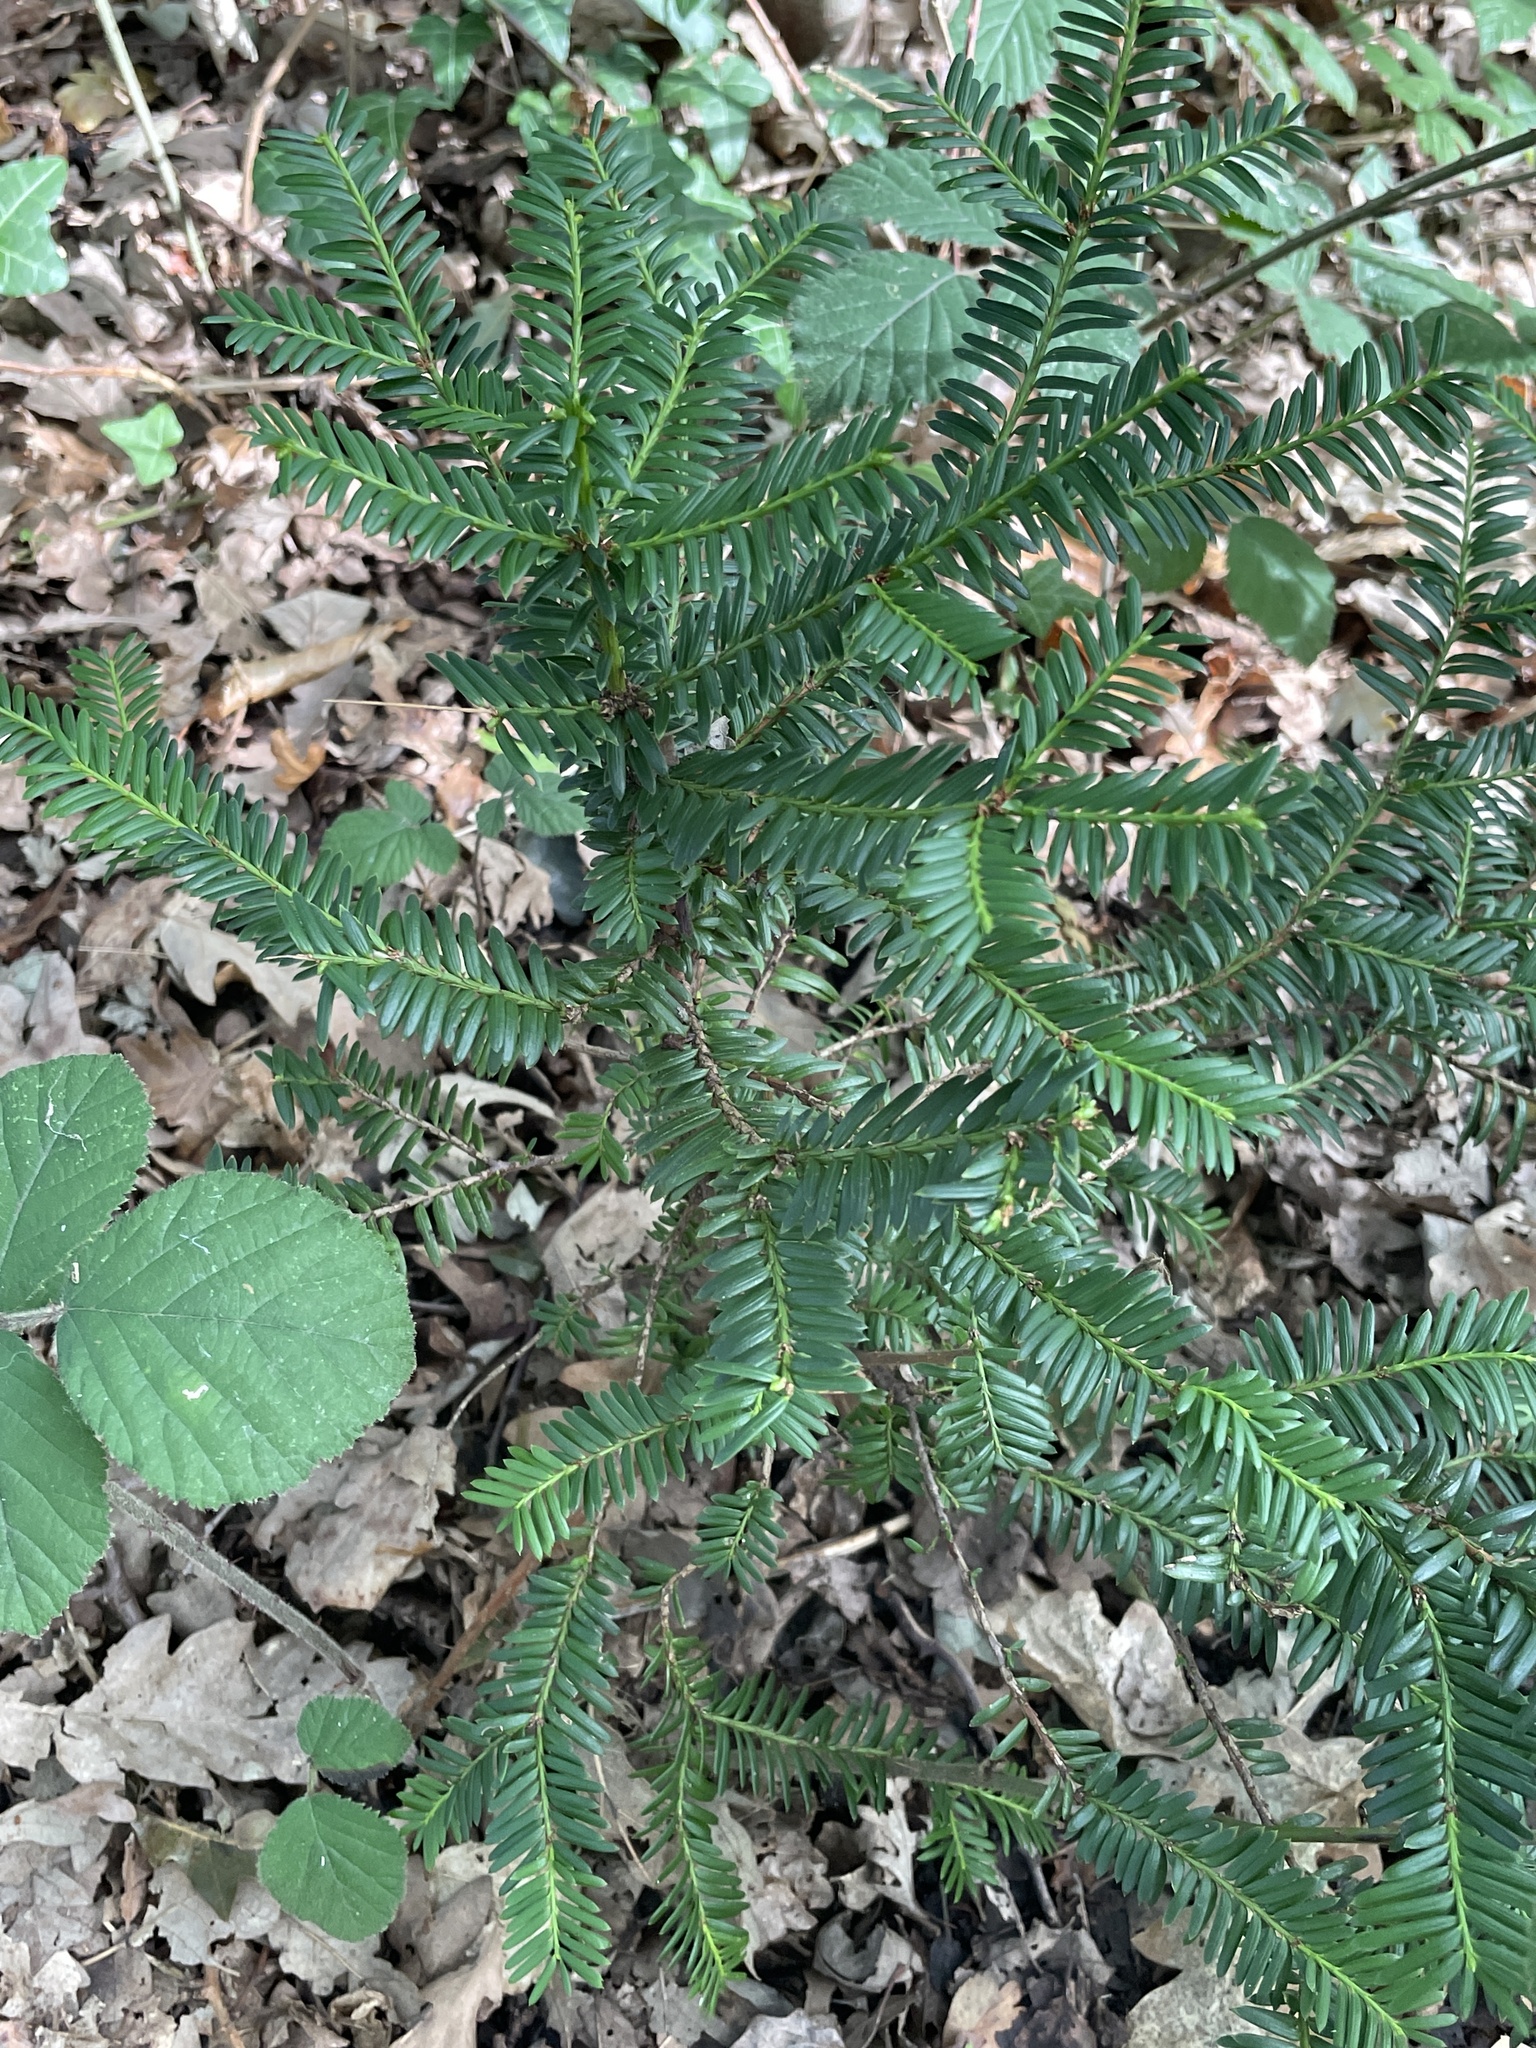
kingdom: Plantae
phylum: Tracheophyta
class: Pinopsida
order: Pinales
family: Taxaceae
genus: Taxus
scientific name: Taxus baccata
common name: Yew
